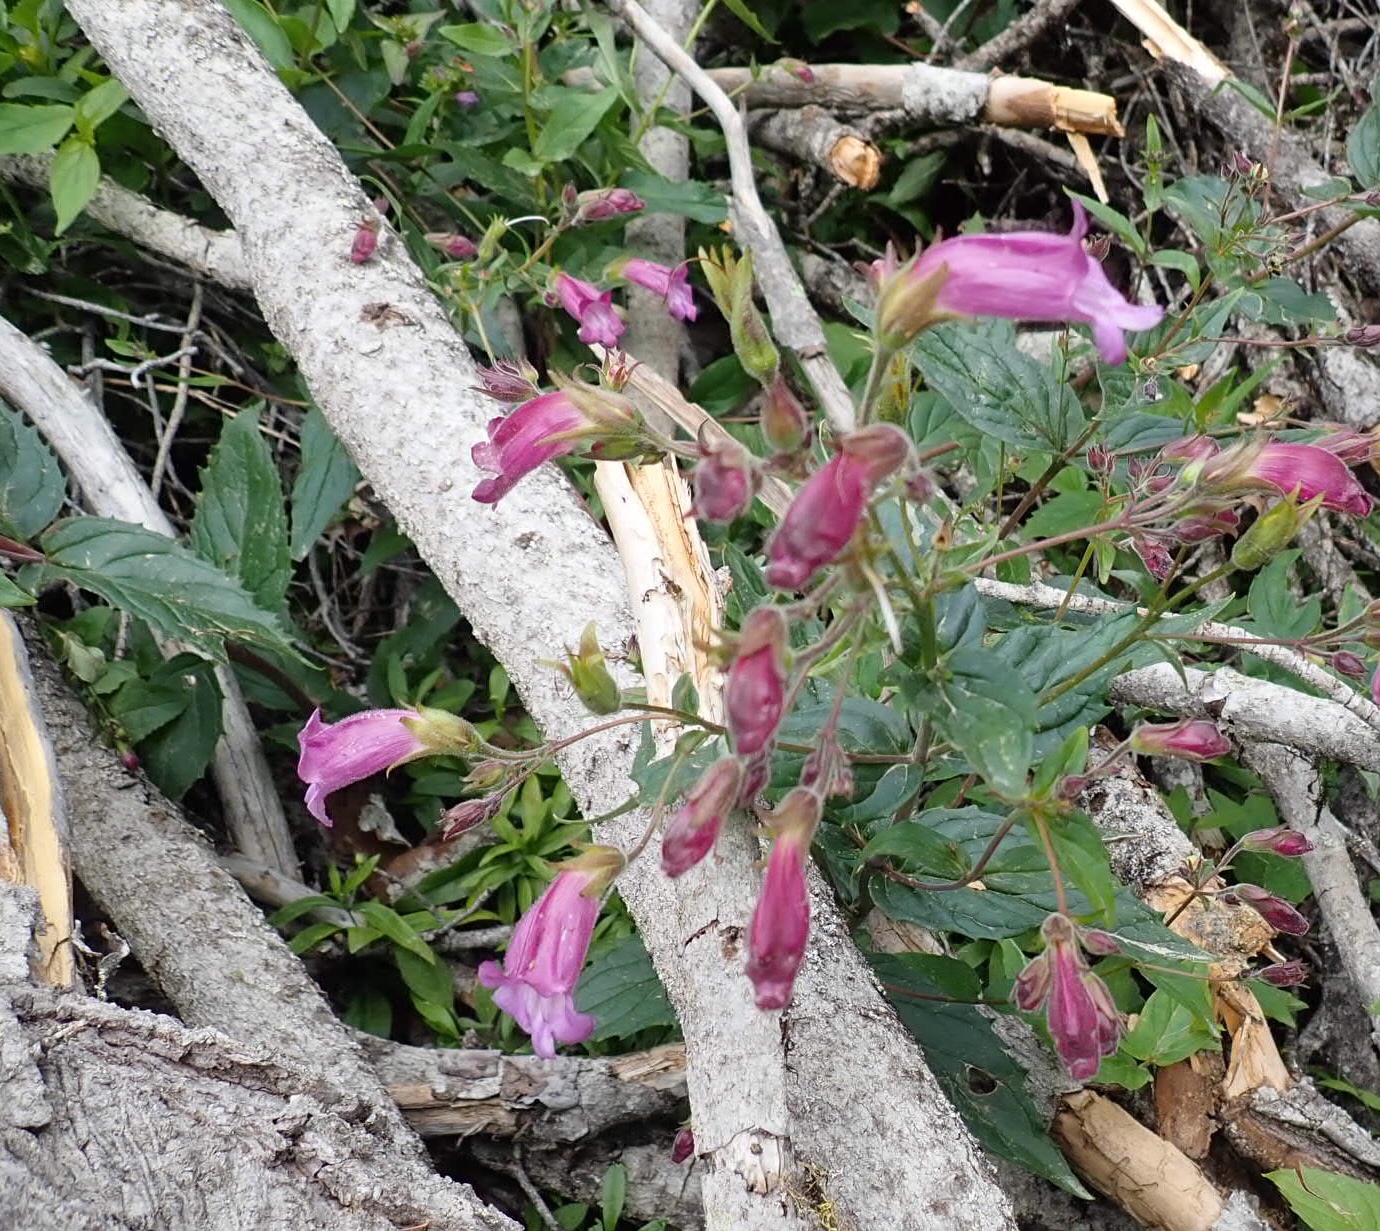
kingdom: Plantae
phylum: Tracheophyta
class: Magnoliopsida
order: Lamiales
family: Plantaginaceae
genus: Nothochelone
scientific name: Nothochelone nemorosa
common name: Woodland beardtongue
